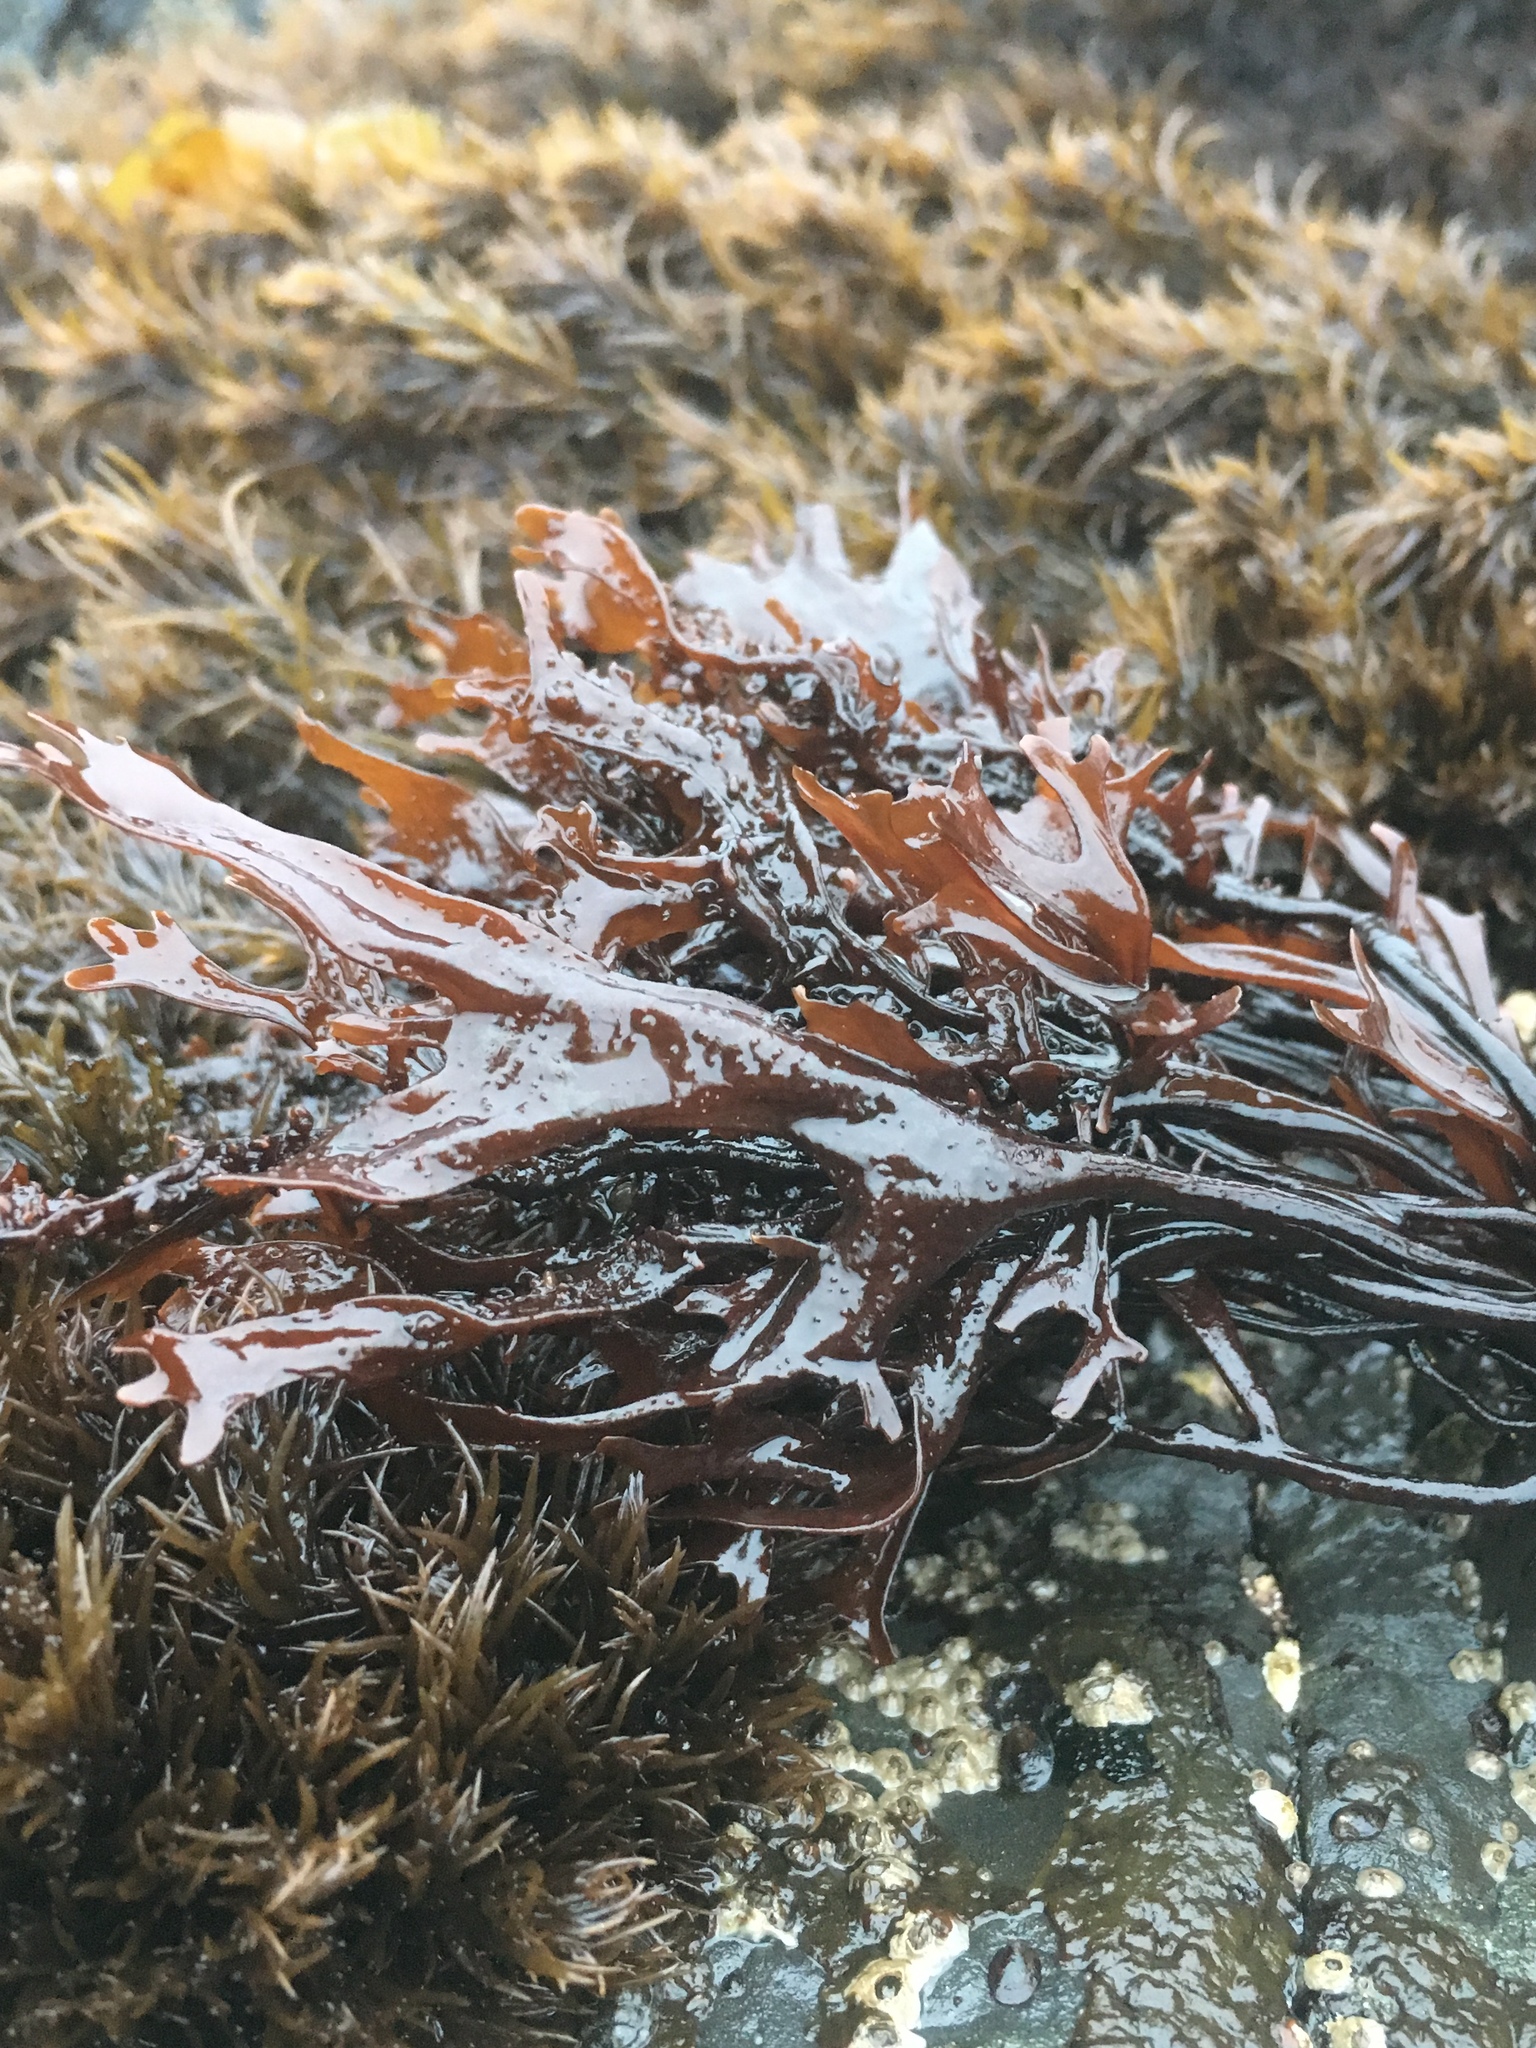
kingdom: Plantae
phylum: Rhodophyta
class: Florideophyceae
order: Gigartinales
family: Phyllophoraceae
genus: Mastocarpus
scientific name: Mastocarpus jardinii
